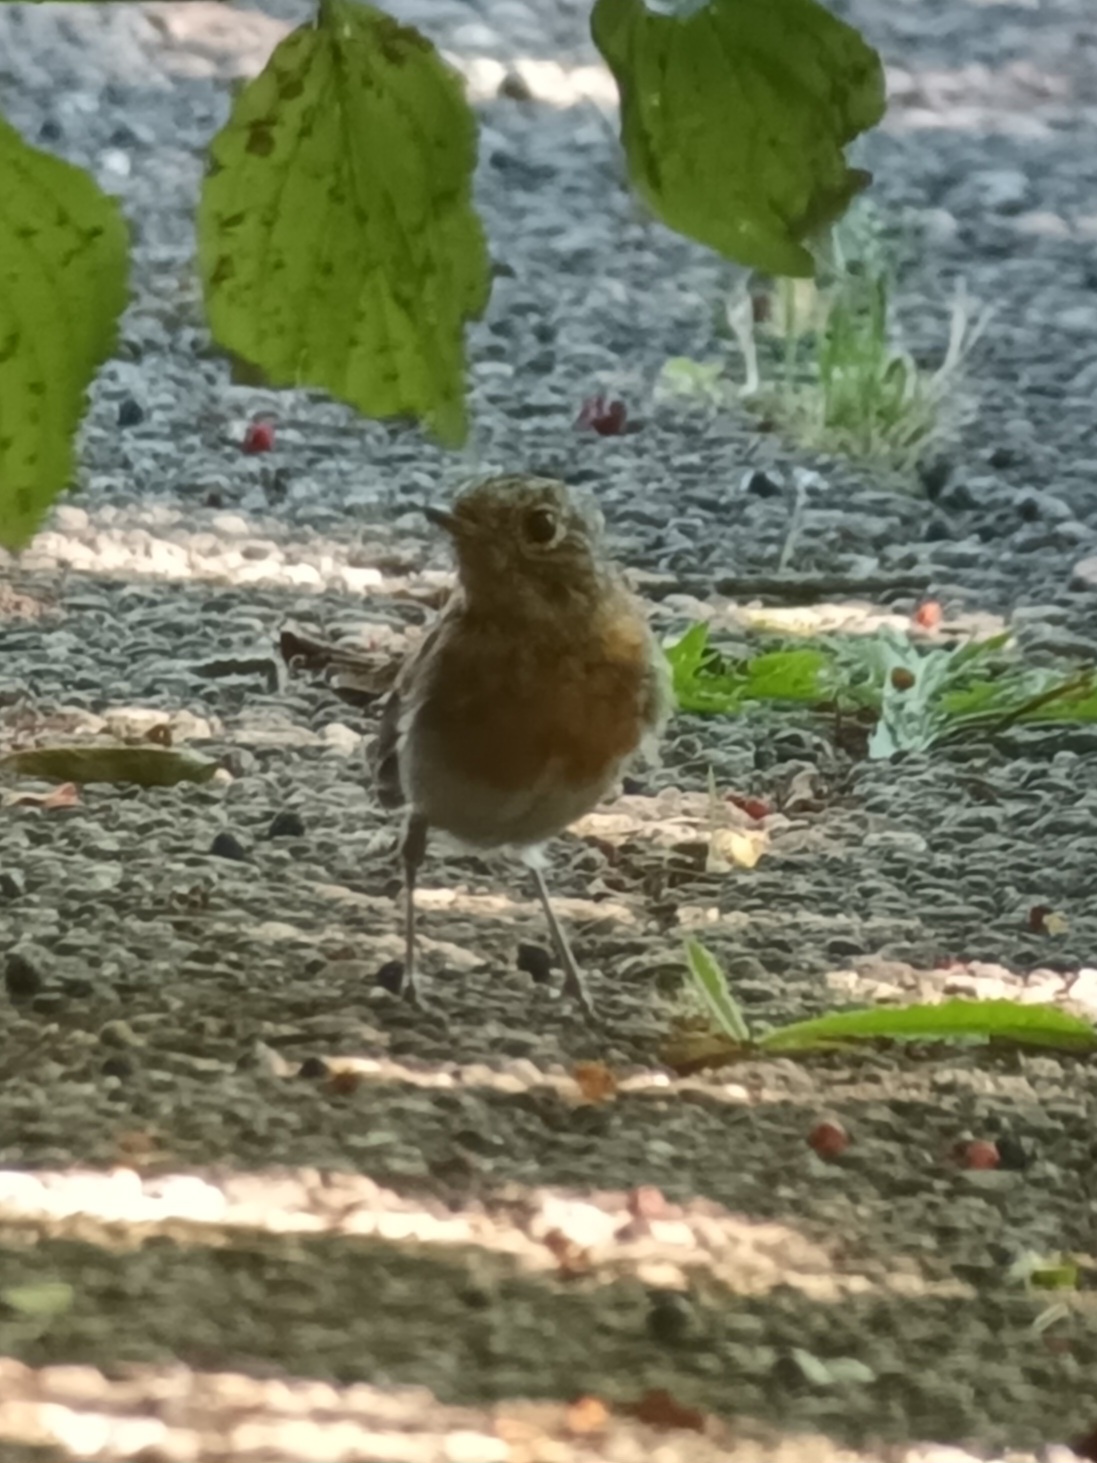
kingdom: Animalia
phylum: Chordata
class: Aves
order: Passeriformes
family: Muscicapidae
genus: Erithacus
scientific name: Erithacus rubecula
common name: European robin
